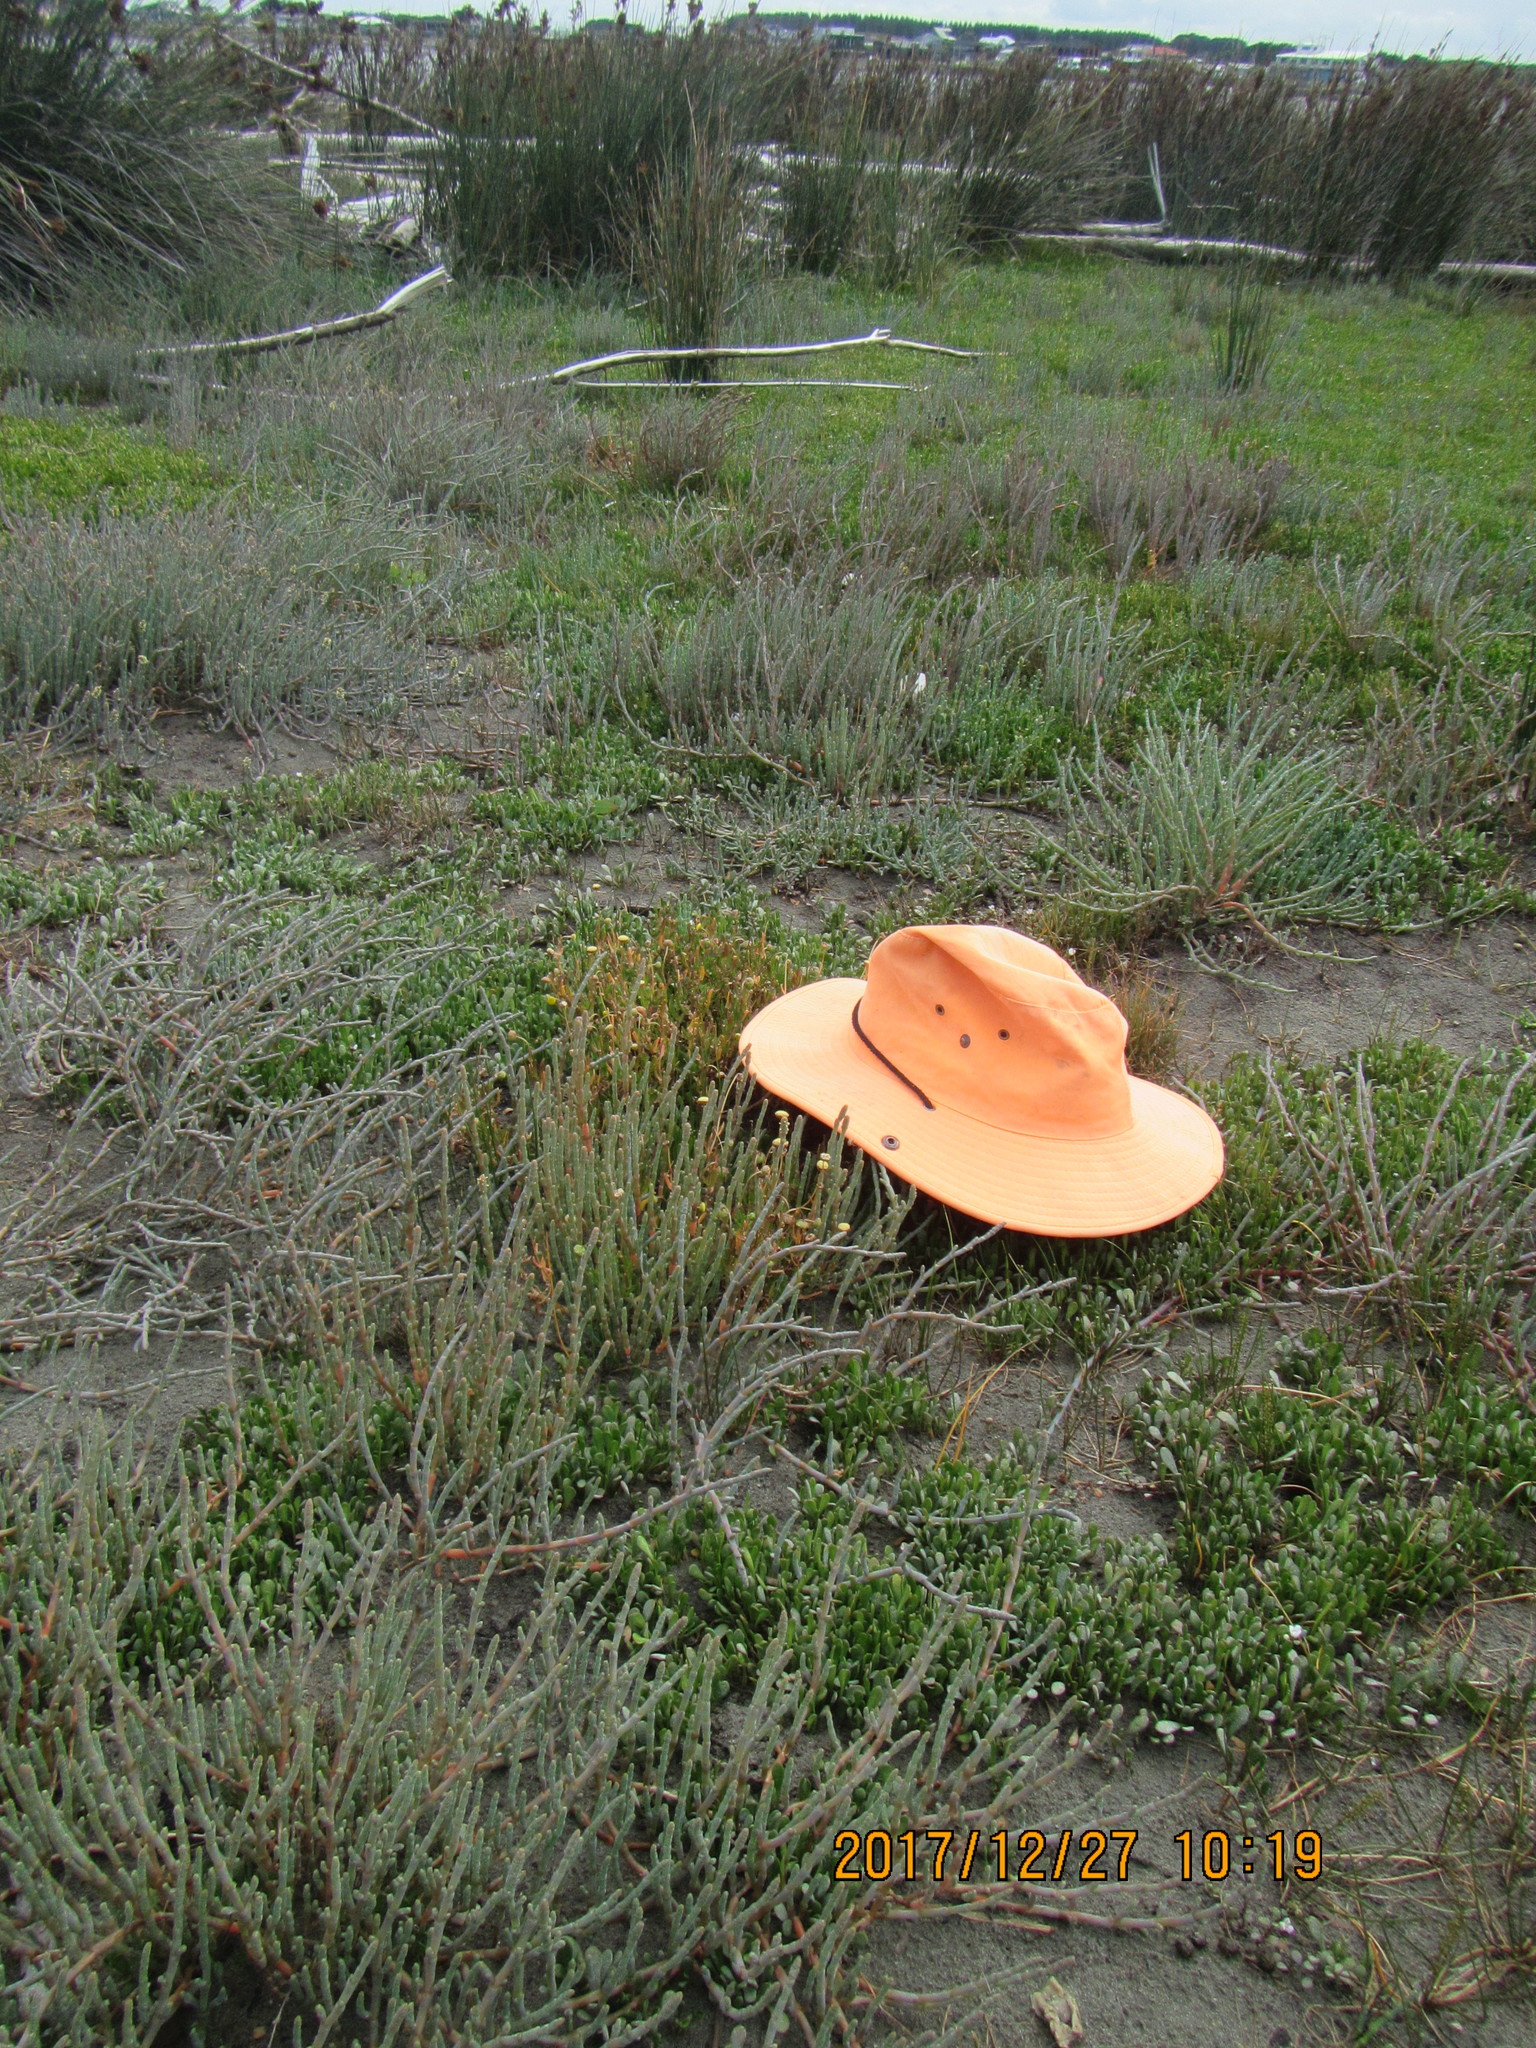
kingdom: Plantae
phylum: Tracheophyta
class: Magnoliopsida
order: Asterales
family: Asteraceae
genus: Cotula
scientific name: Cotula coronopifolia
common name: Buttonweed
